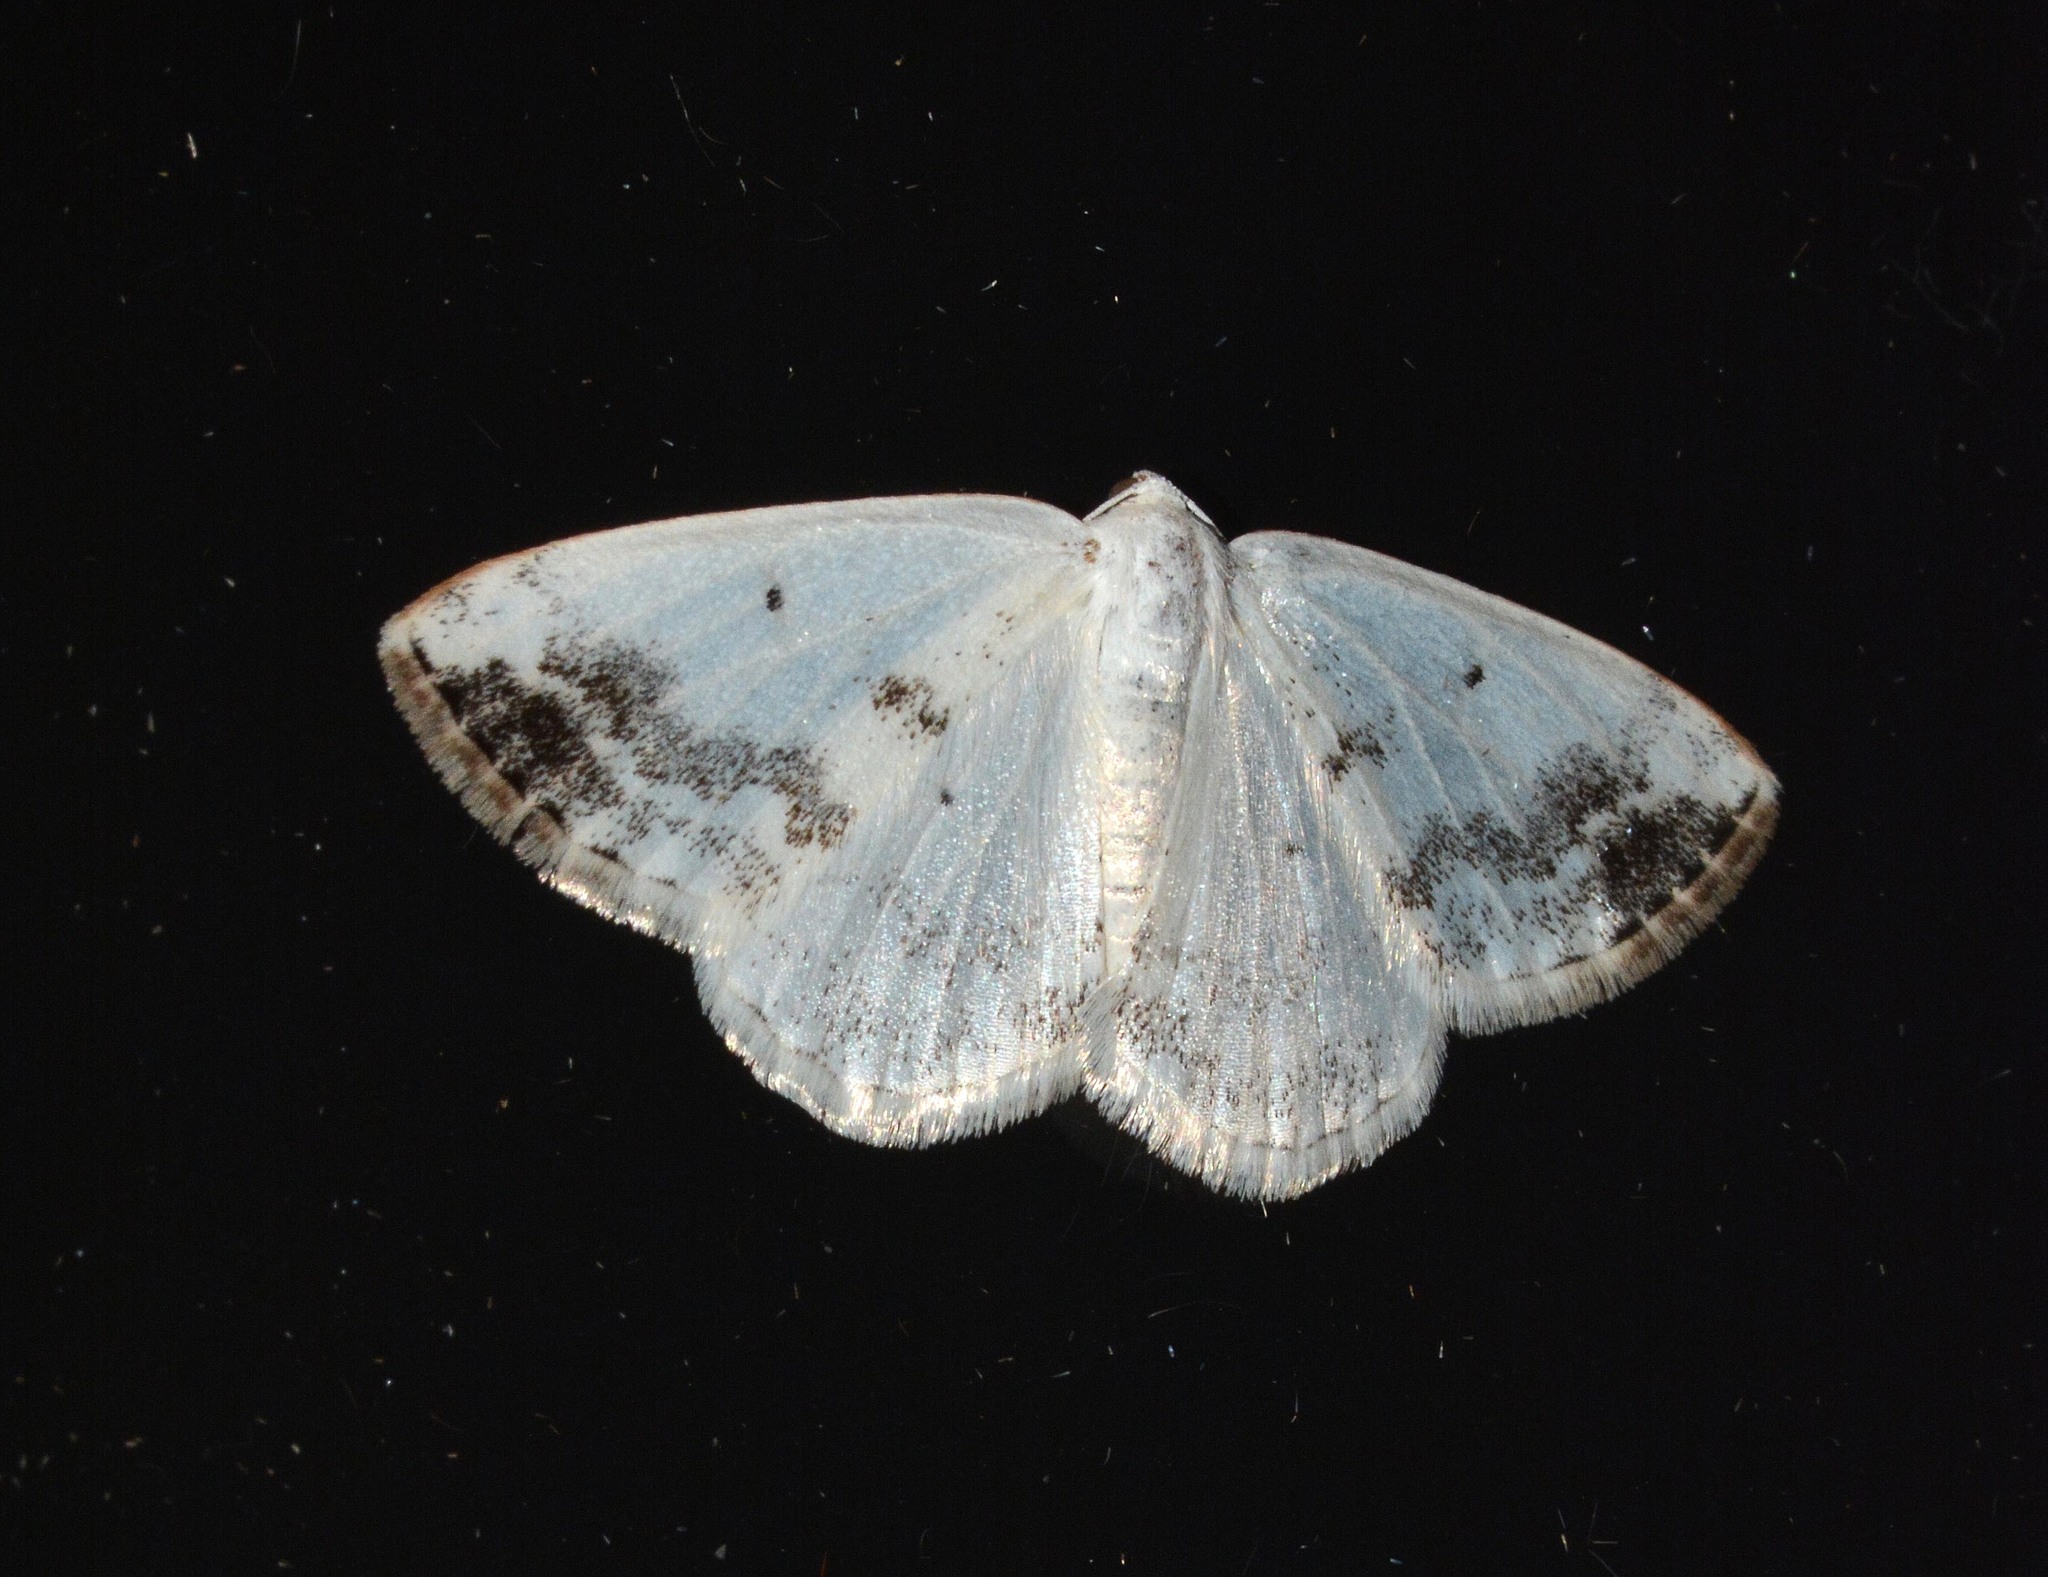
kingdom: Animalia
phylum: Arthropoda
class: Insecta
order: Lepidoptera
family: Geometridae
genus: Lomographa
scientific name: Lomographa temerata
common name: Clouded silver
